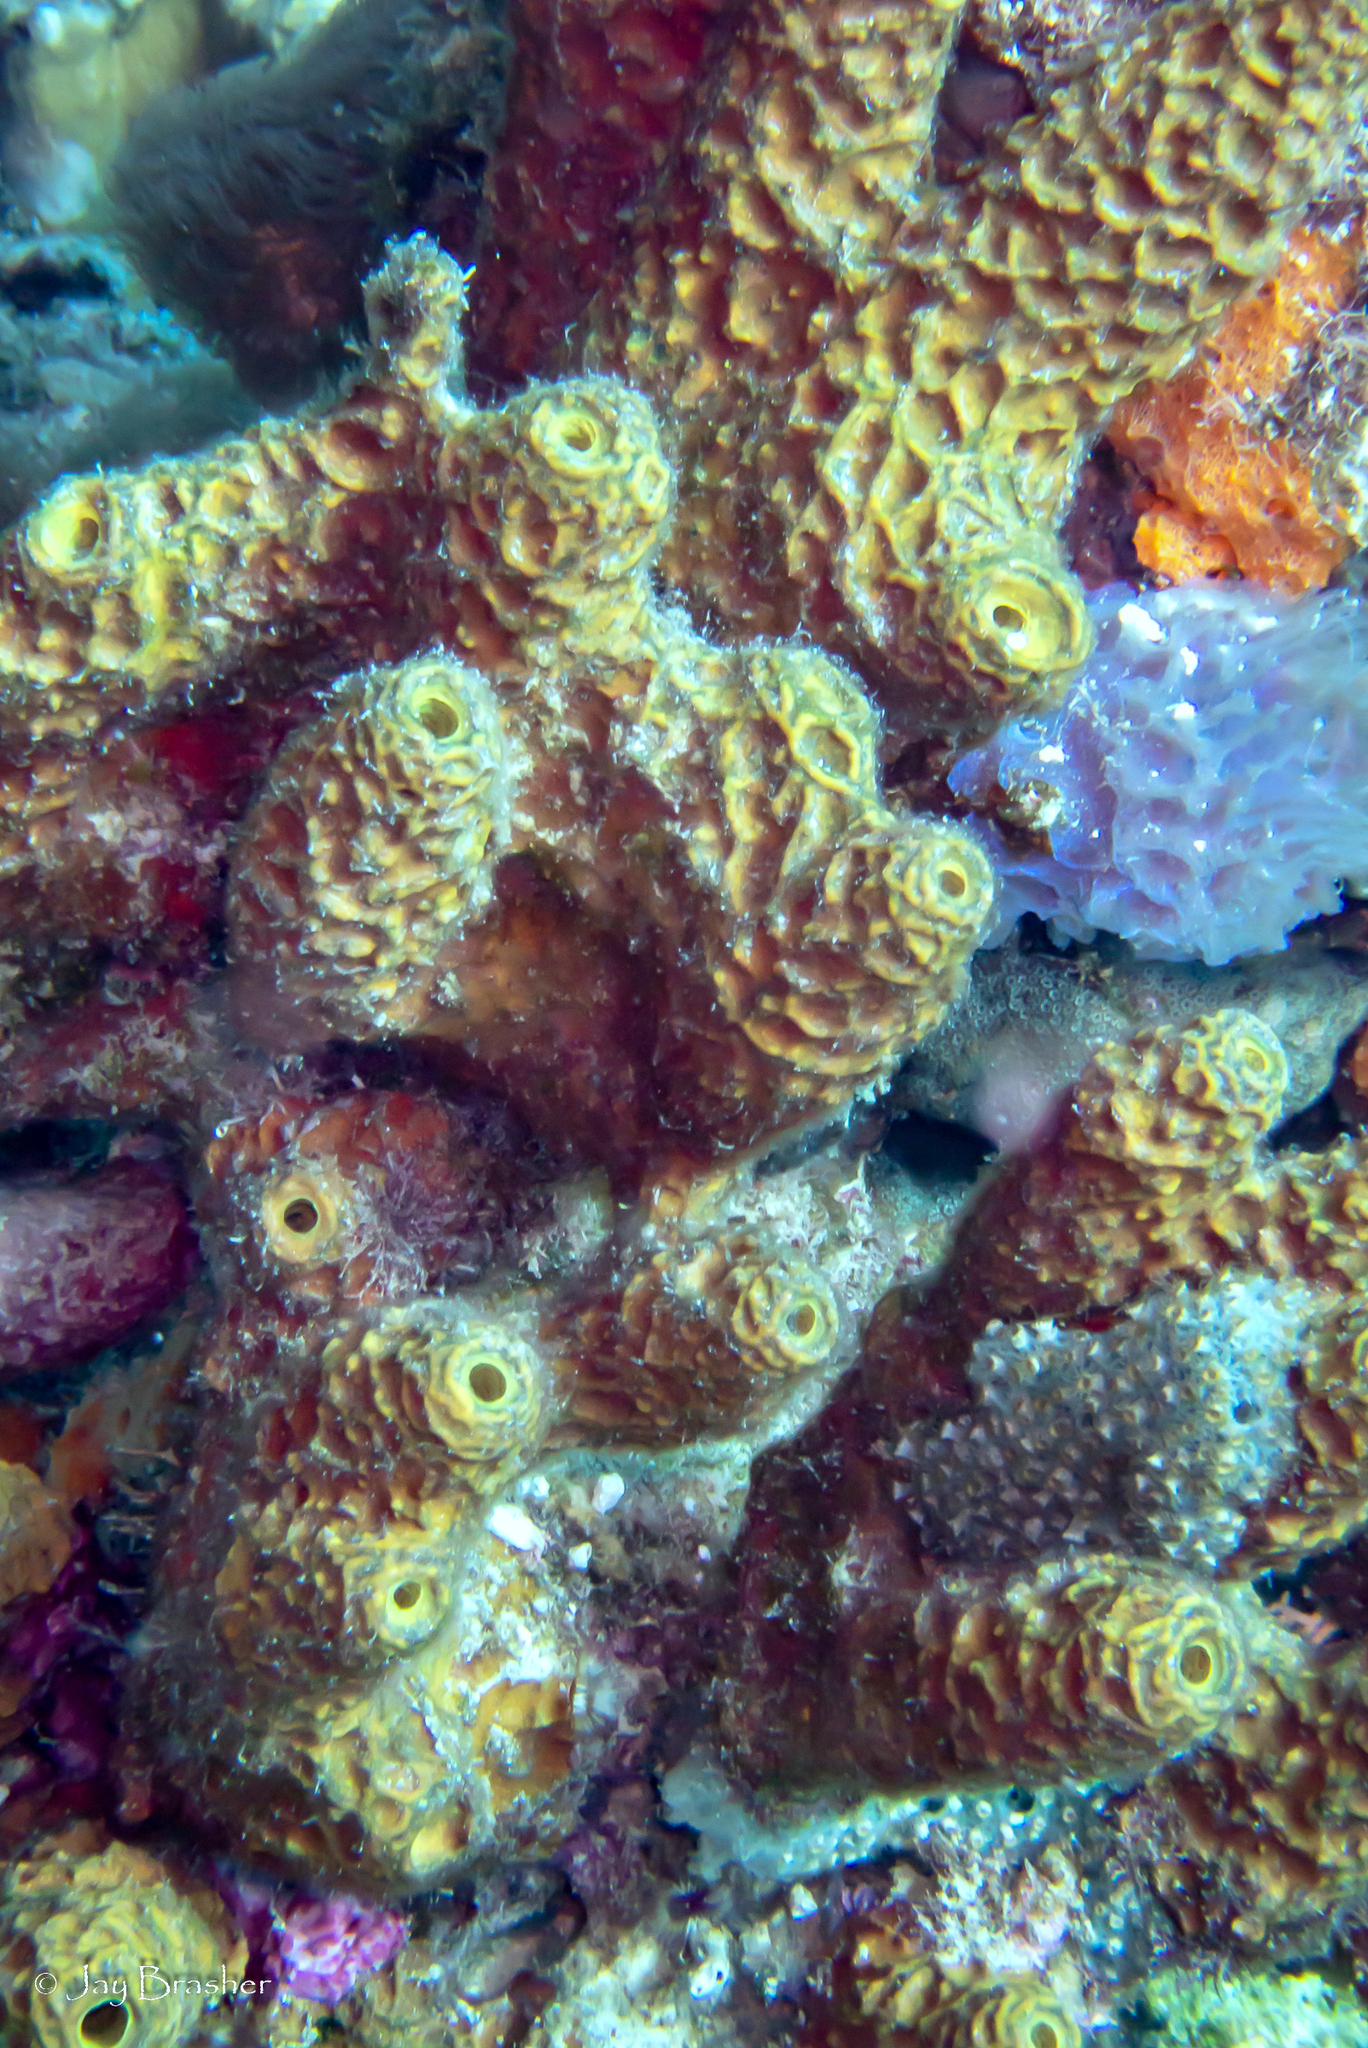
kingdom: Animalia
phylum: Porifera
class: Demospongiae
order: Verongiida
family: Aplysinidae
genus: Verongula
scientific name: Verongula rigida
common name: Pitted sponge
